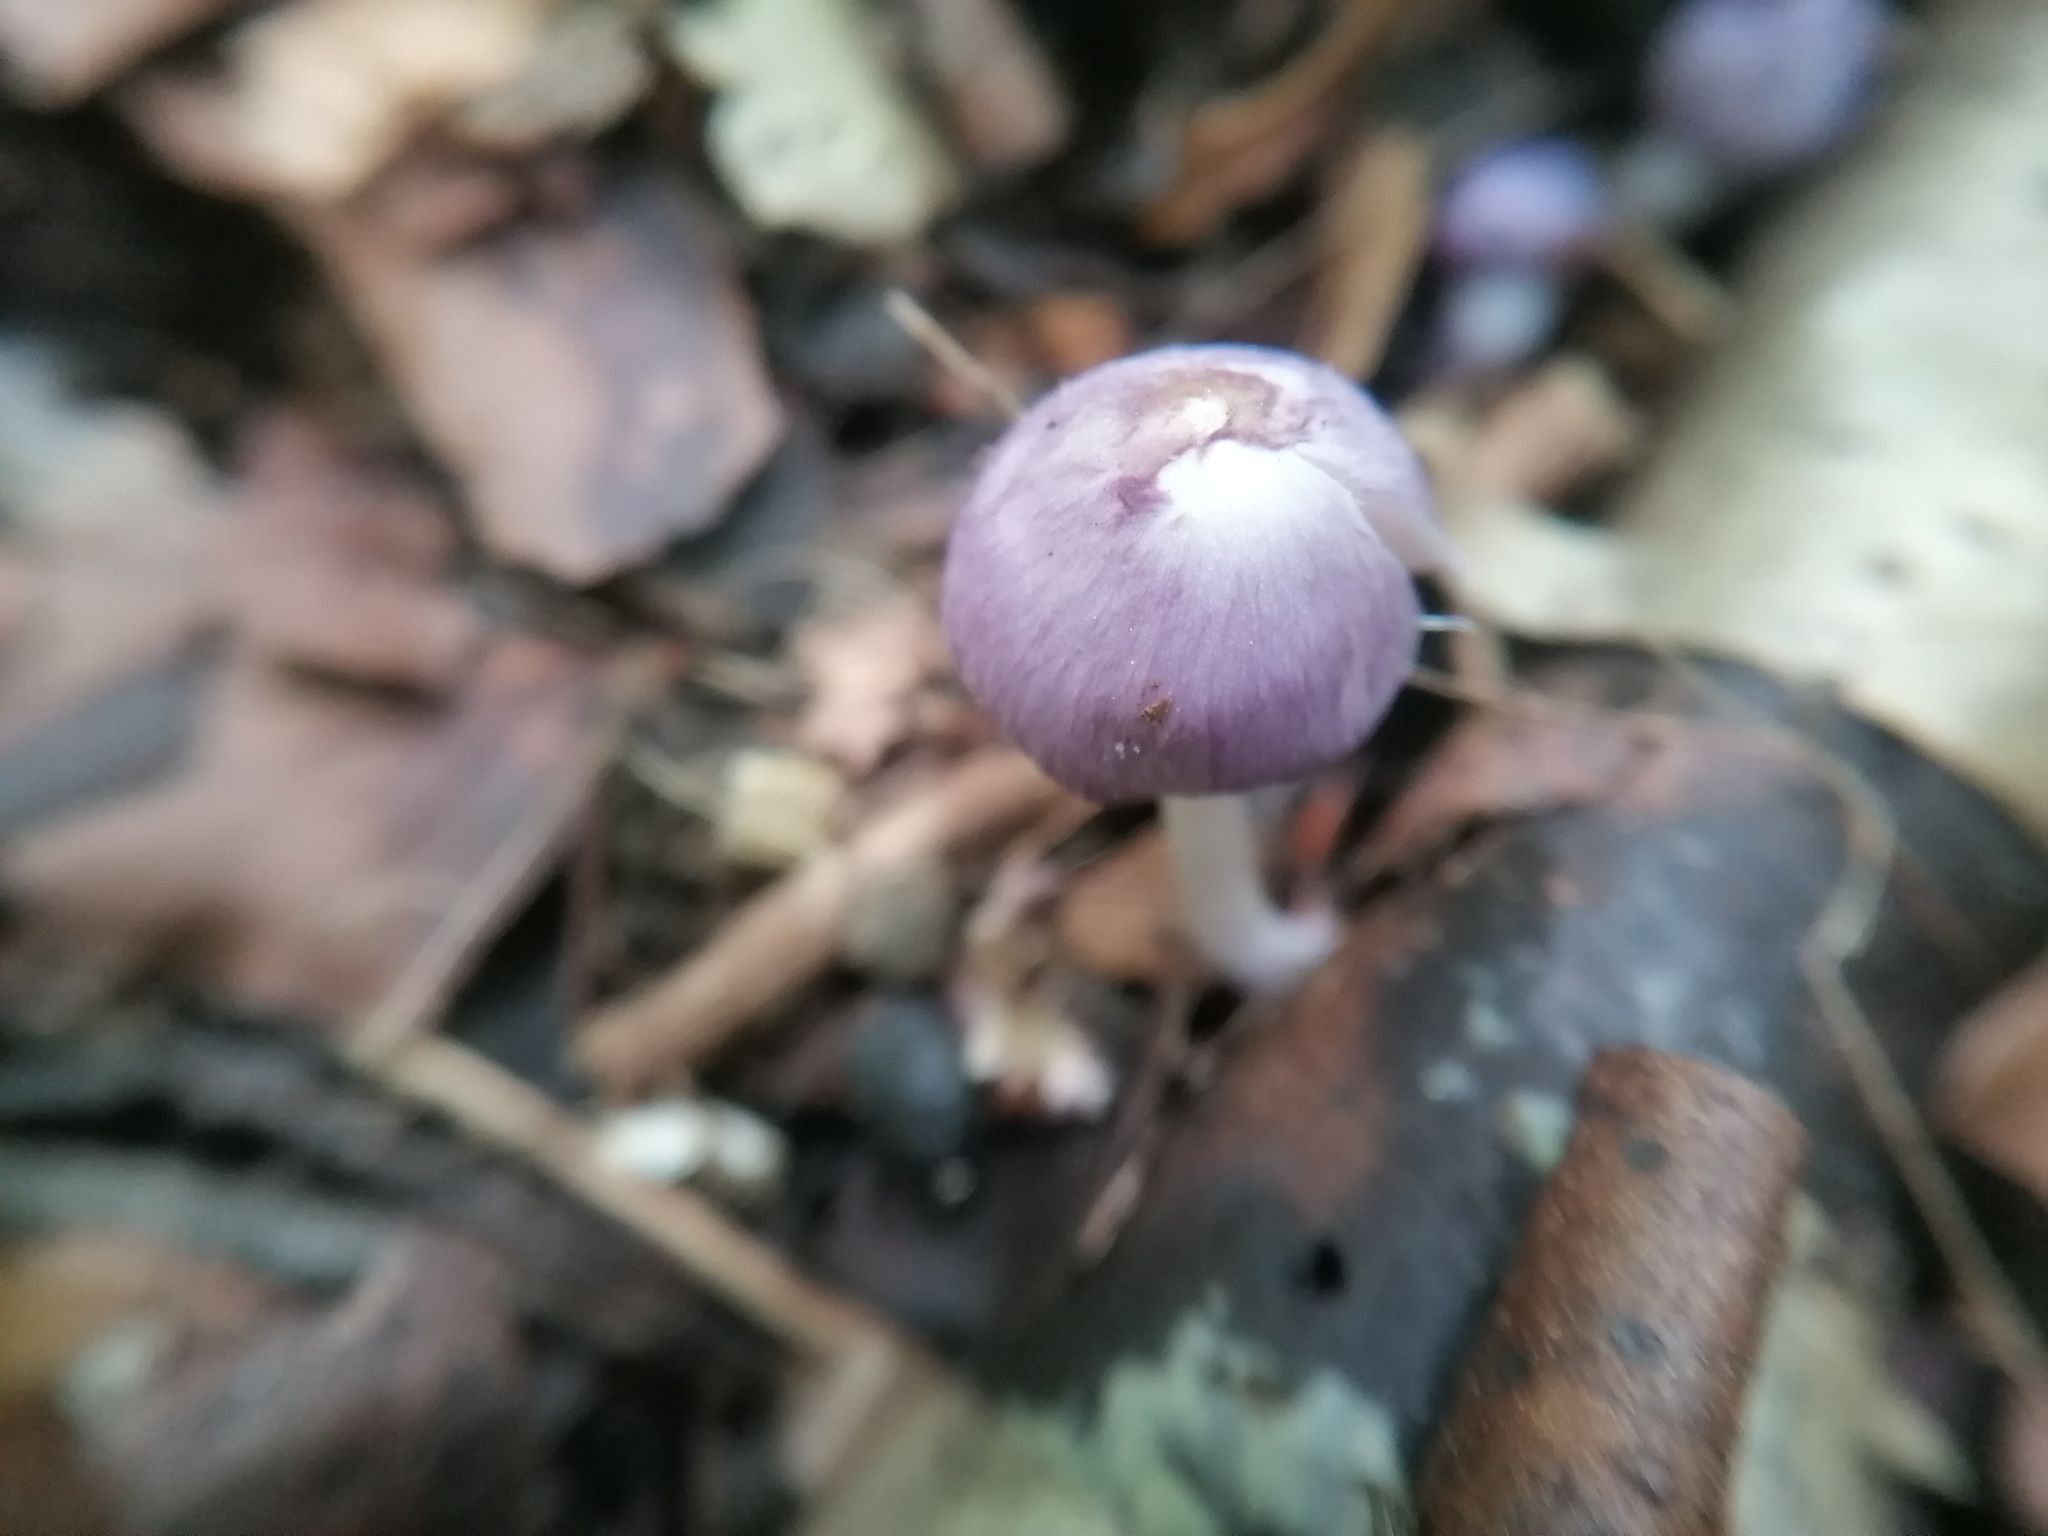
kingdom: Fungi
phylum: Basidiomycota
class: Agaricomycetes
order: Agaricales
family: Inocybaceae
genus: Inocybe
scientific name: Inocybe geophylla
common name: White fibrecap
